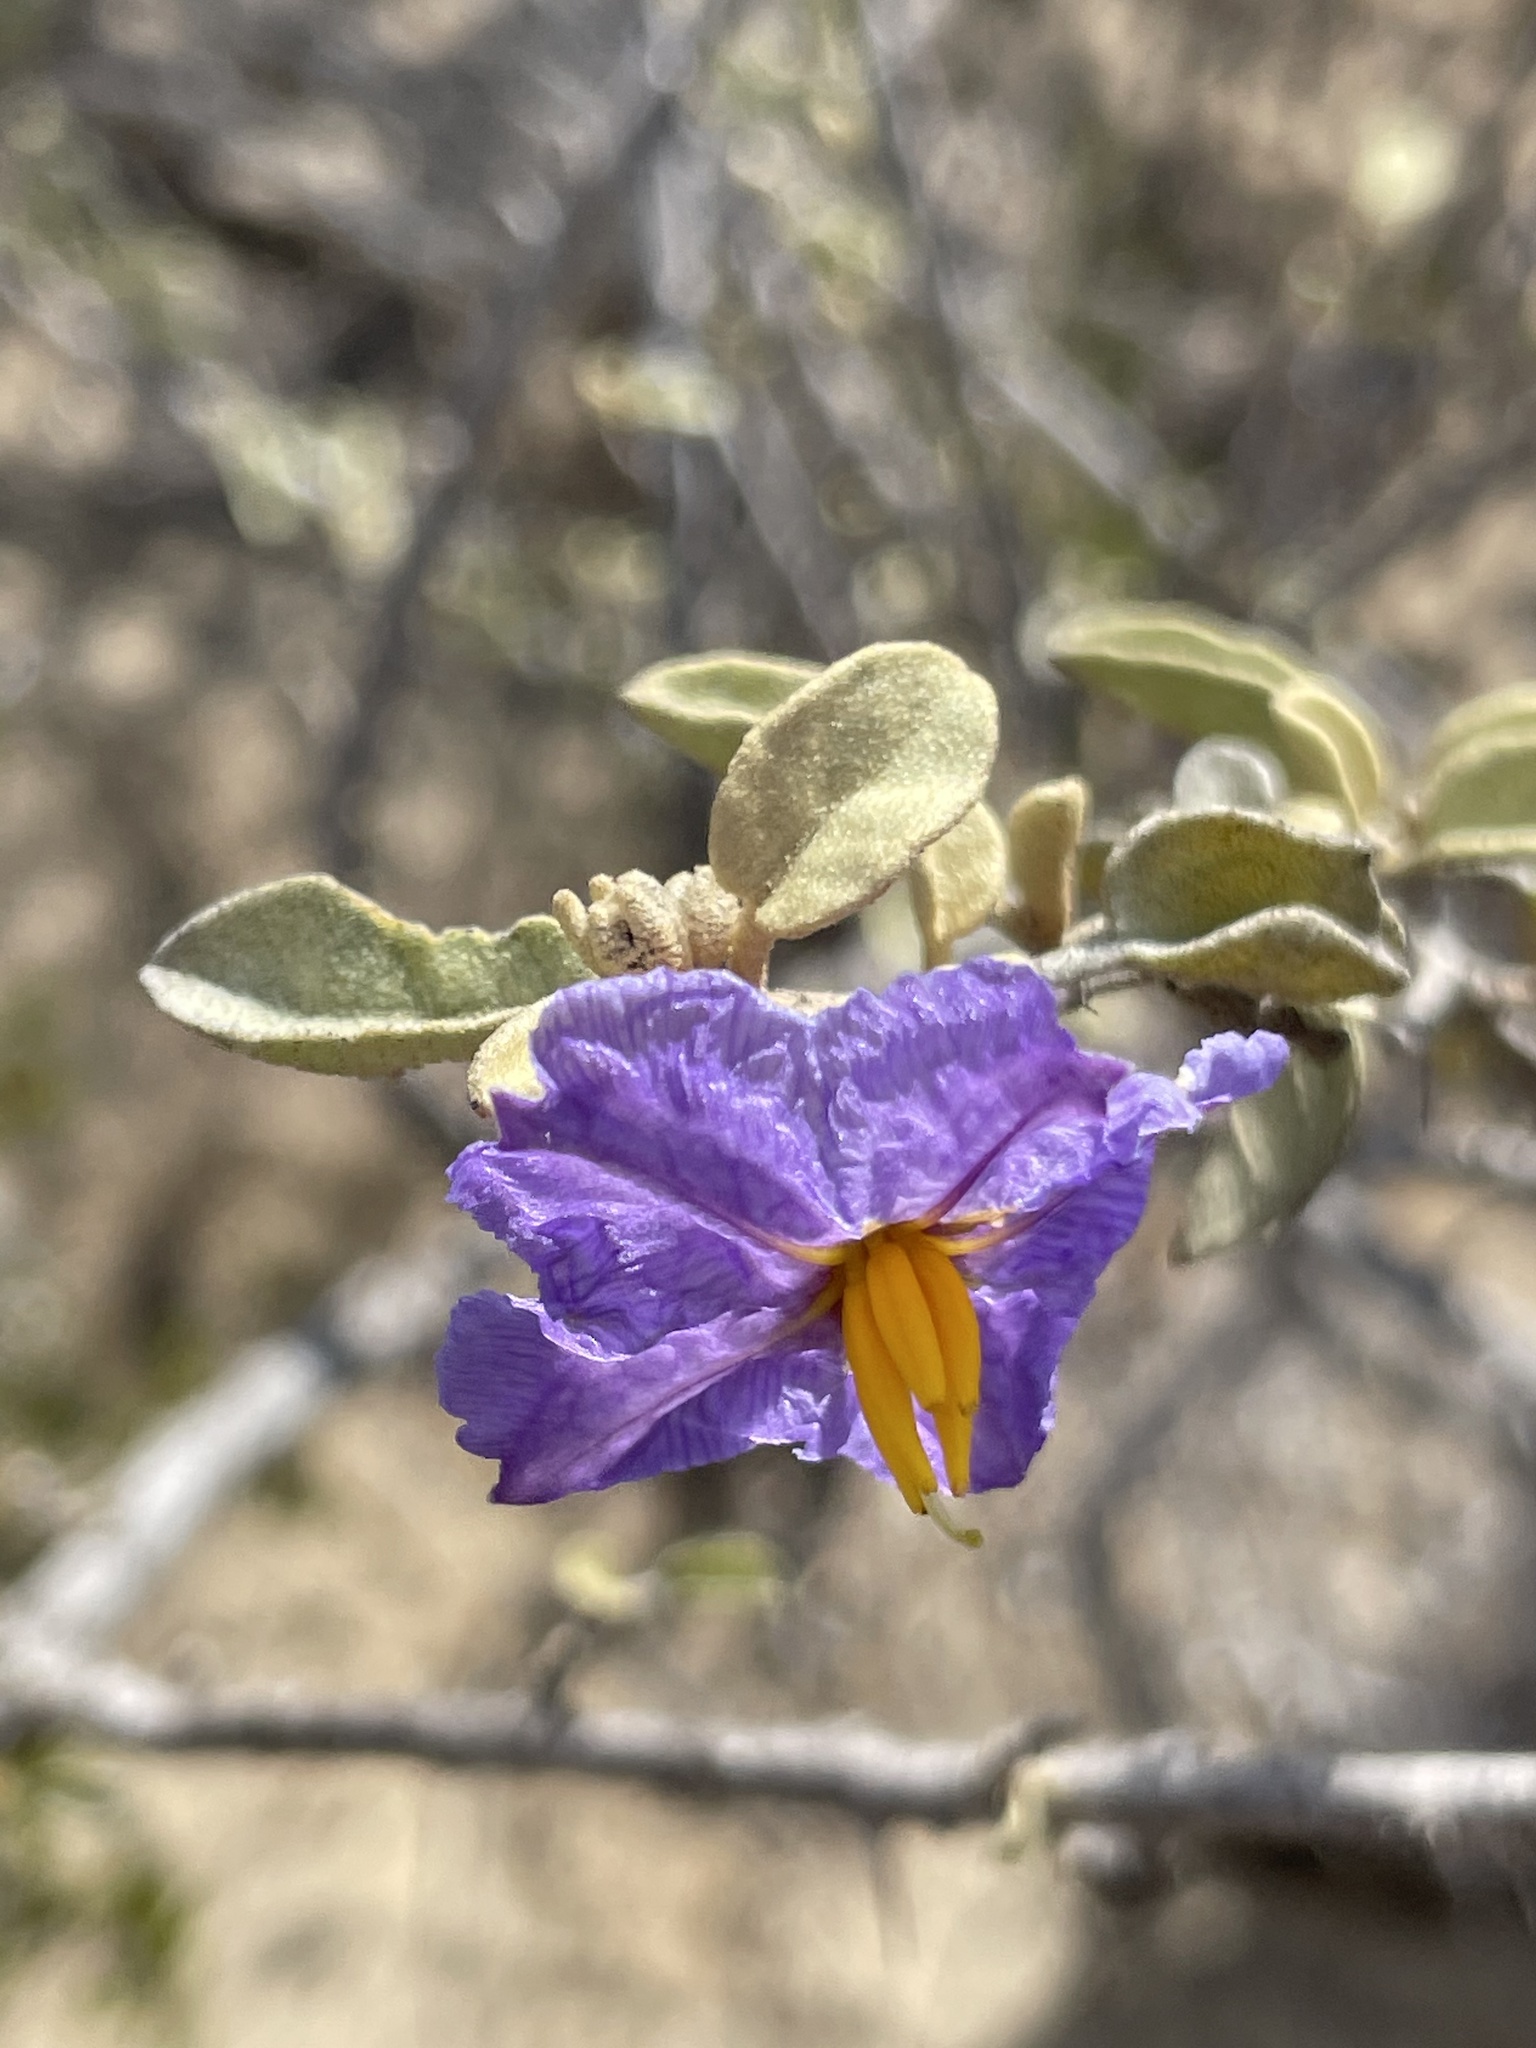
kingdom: Plantae
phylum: Tracheophyta
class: Magnoliopsida
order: Solanales
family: Solanaceae
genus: Solanum
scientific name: Solanum hindsianum
